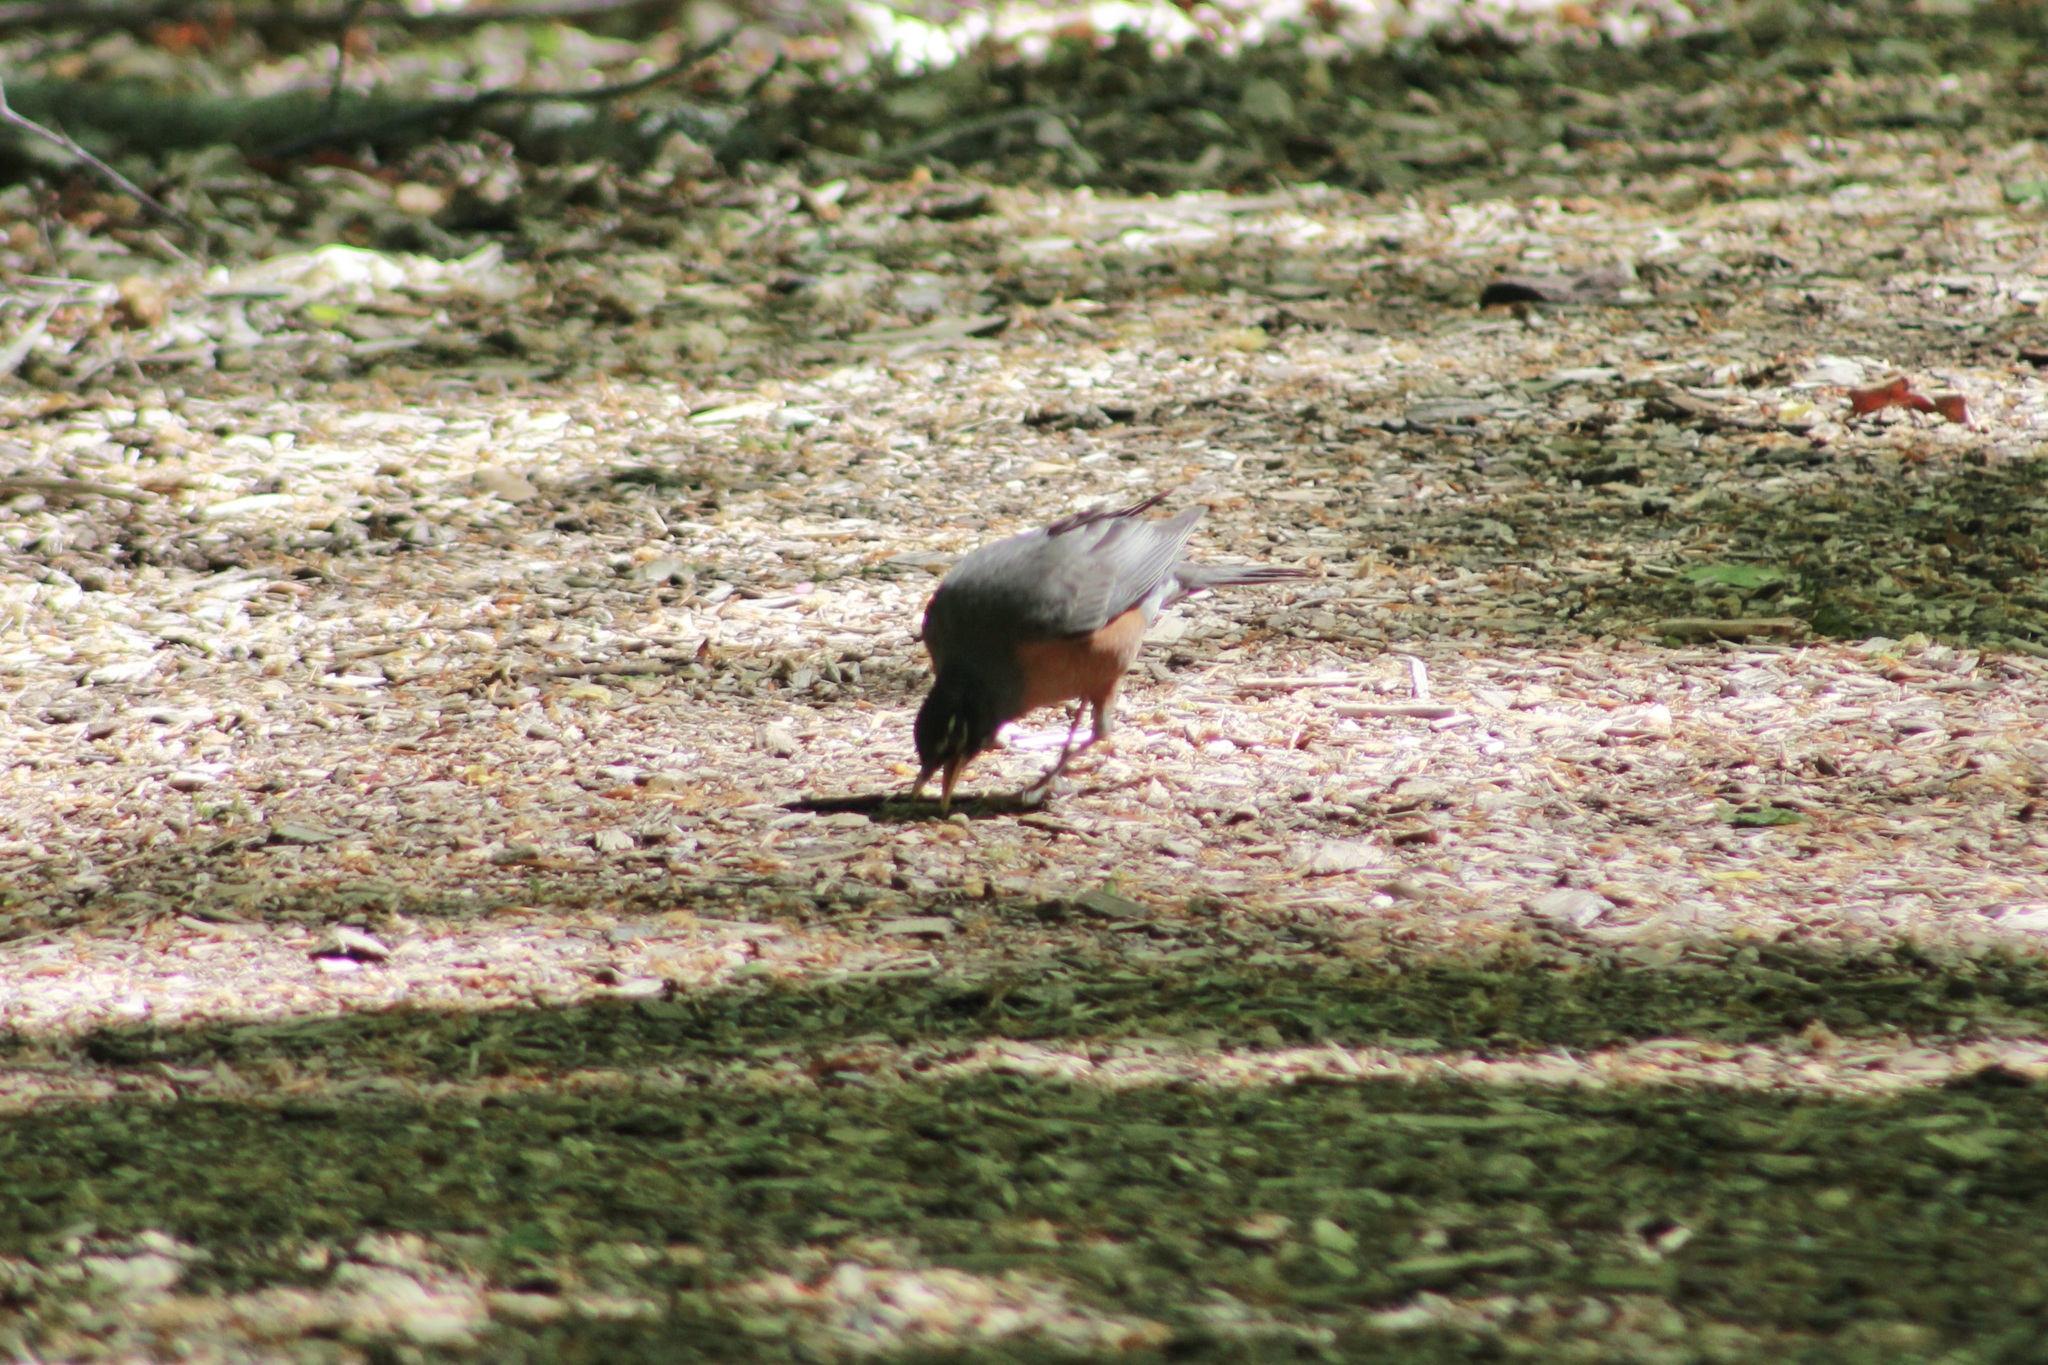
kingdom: Animalia
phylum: Chordata
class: Aves
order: Passeriformes
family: Turdidae
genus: Turdus
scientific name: Turdus migratorius
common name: American robin
